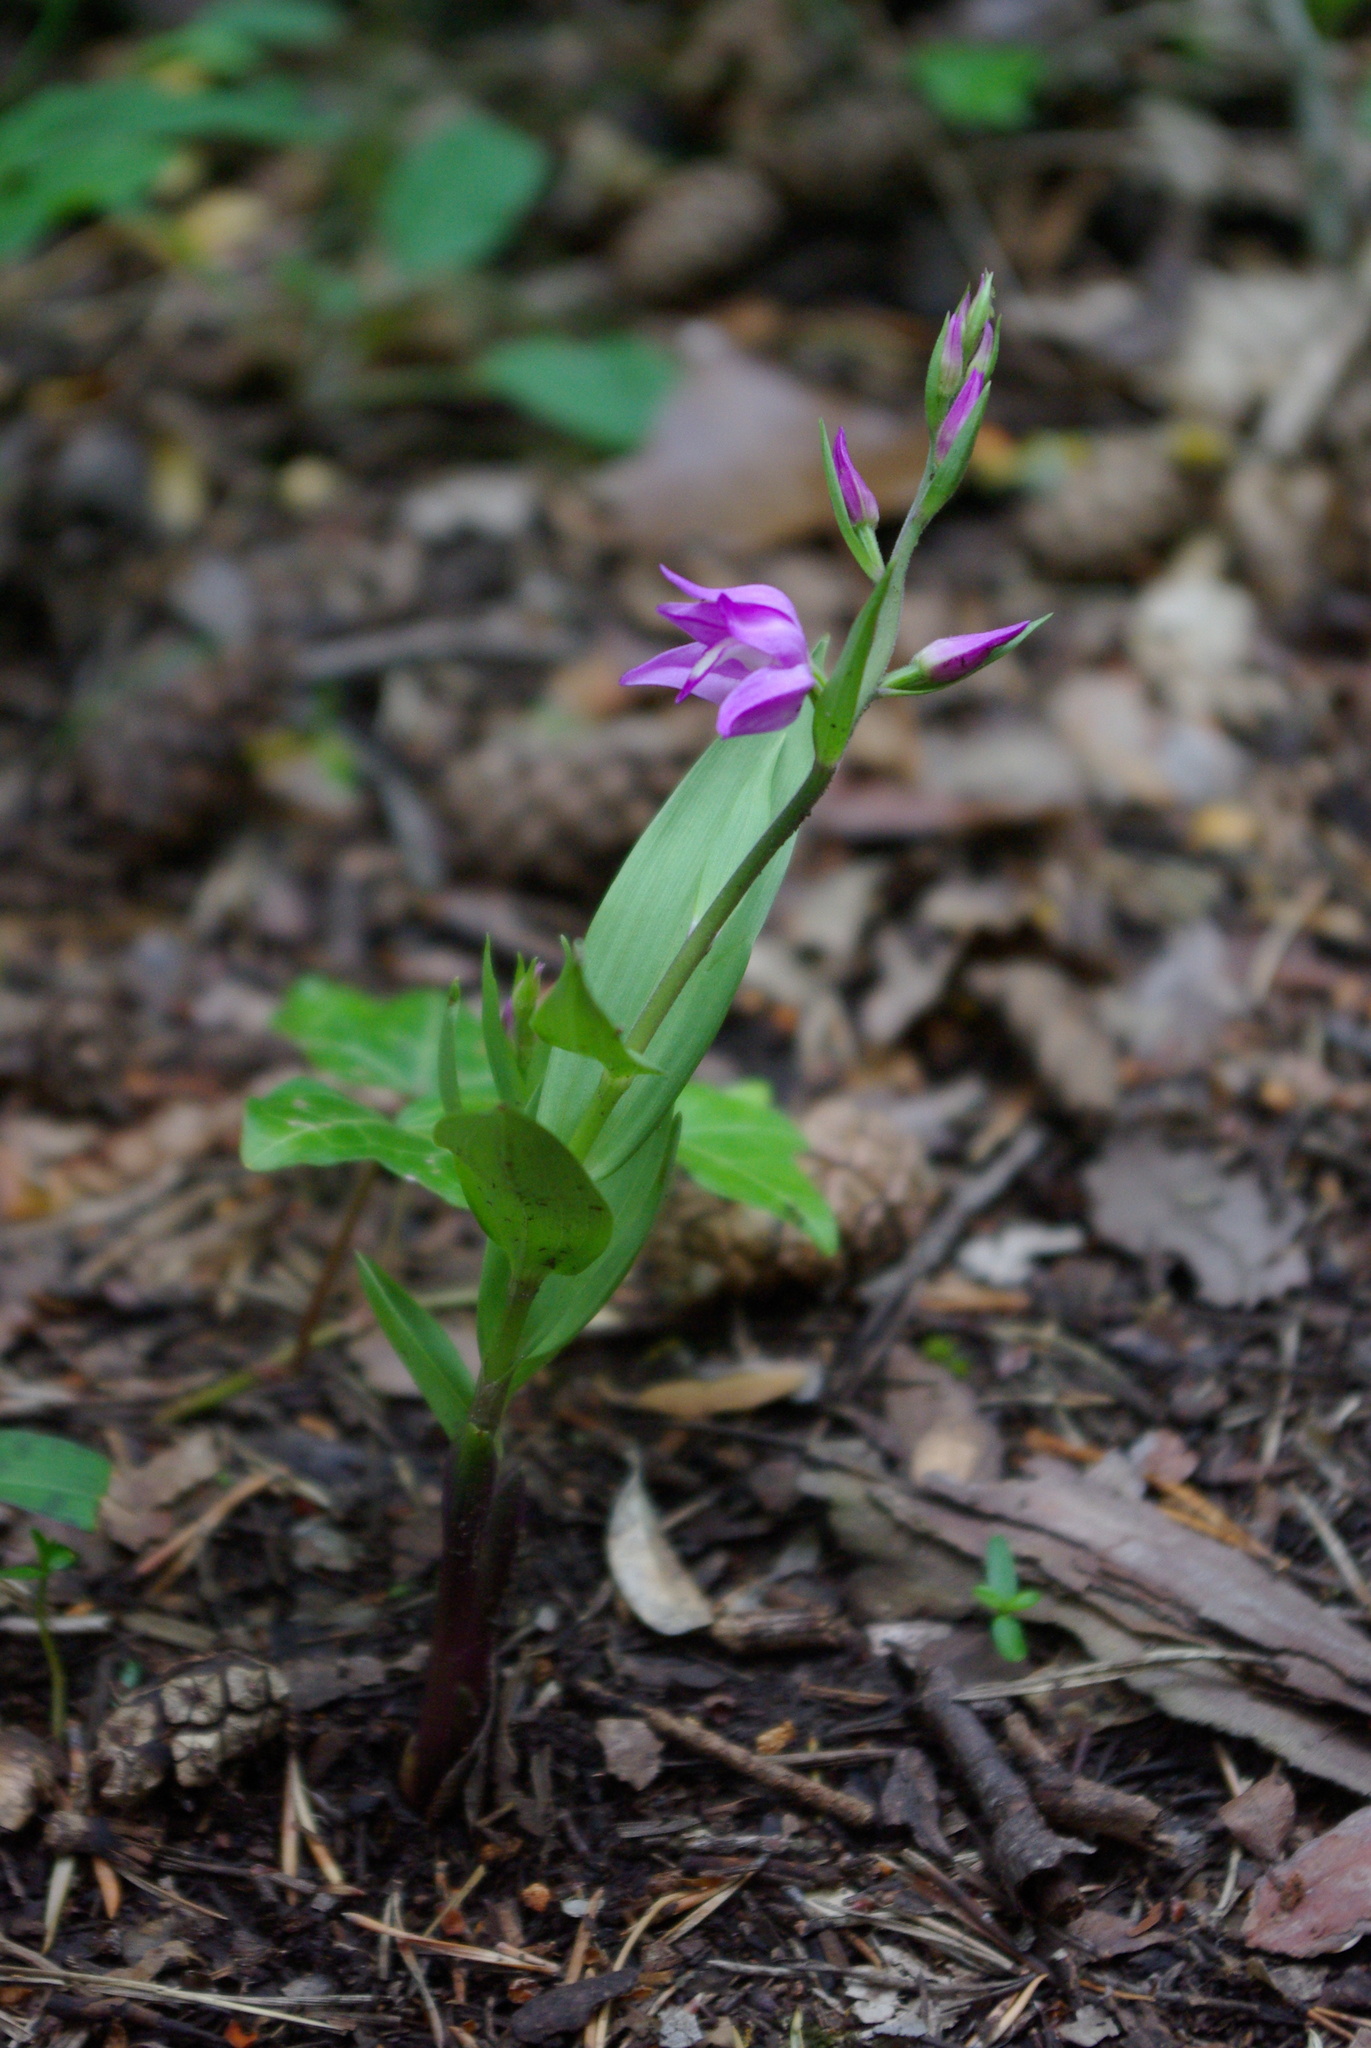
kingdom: Plantae
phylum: Tracheophyta
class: Liliopsida
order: Asparagales
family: Orchidaceae
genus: Cephalanthera
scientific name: Cephalanthera rubra
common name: Red helleborine
